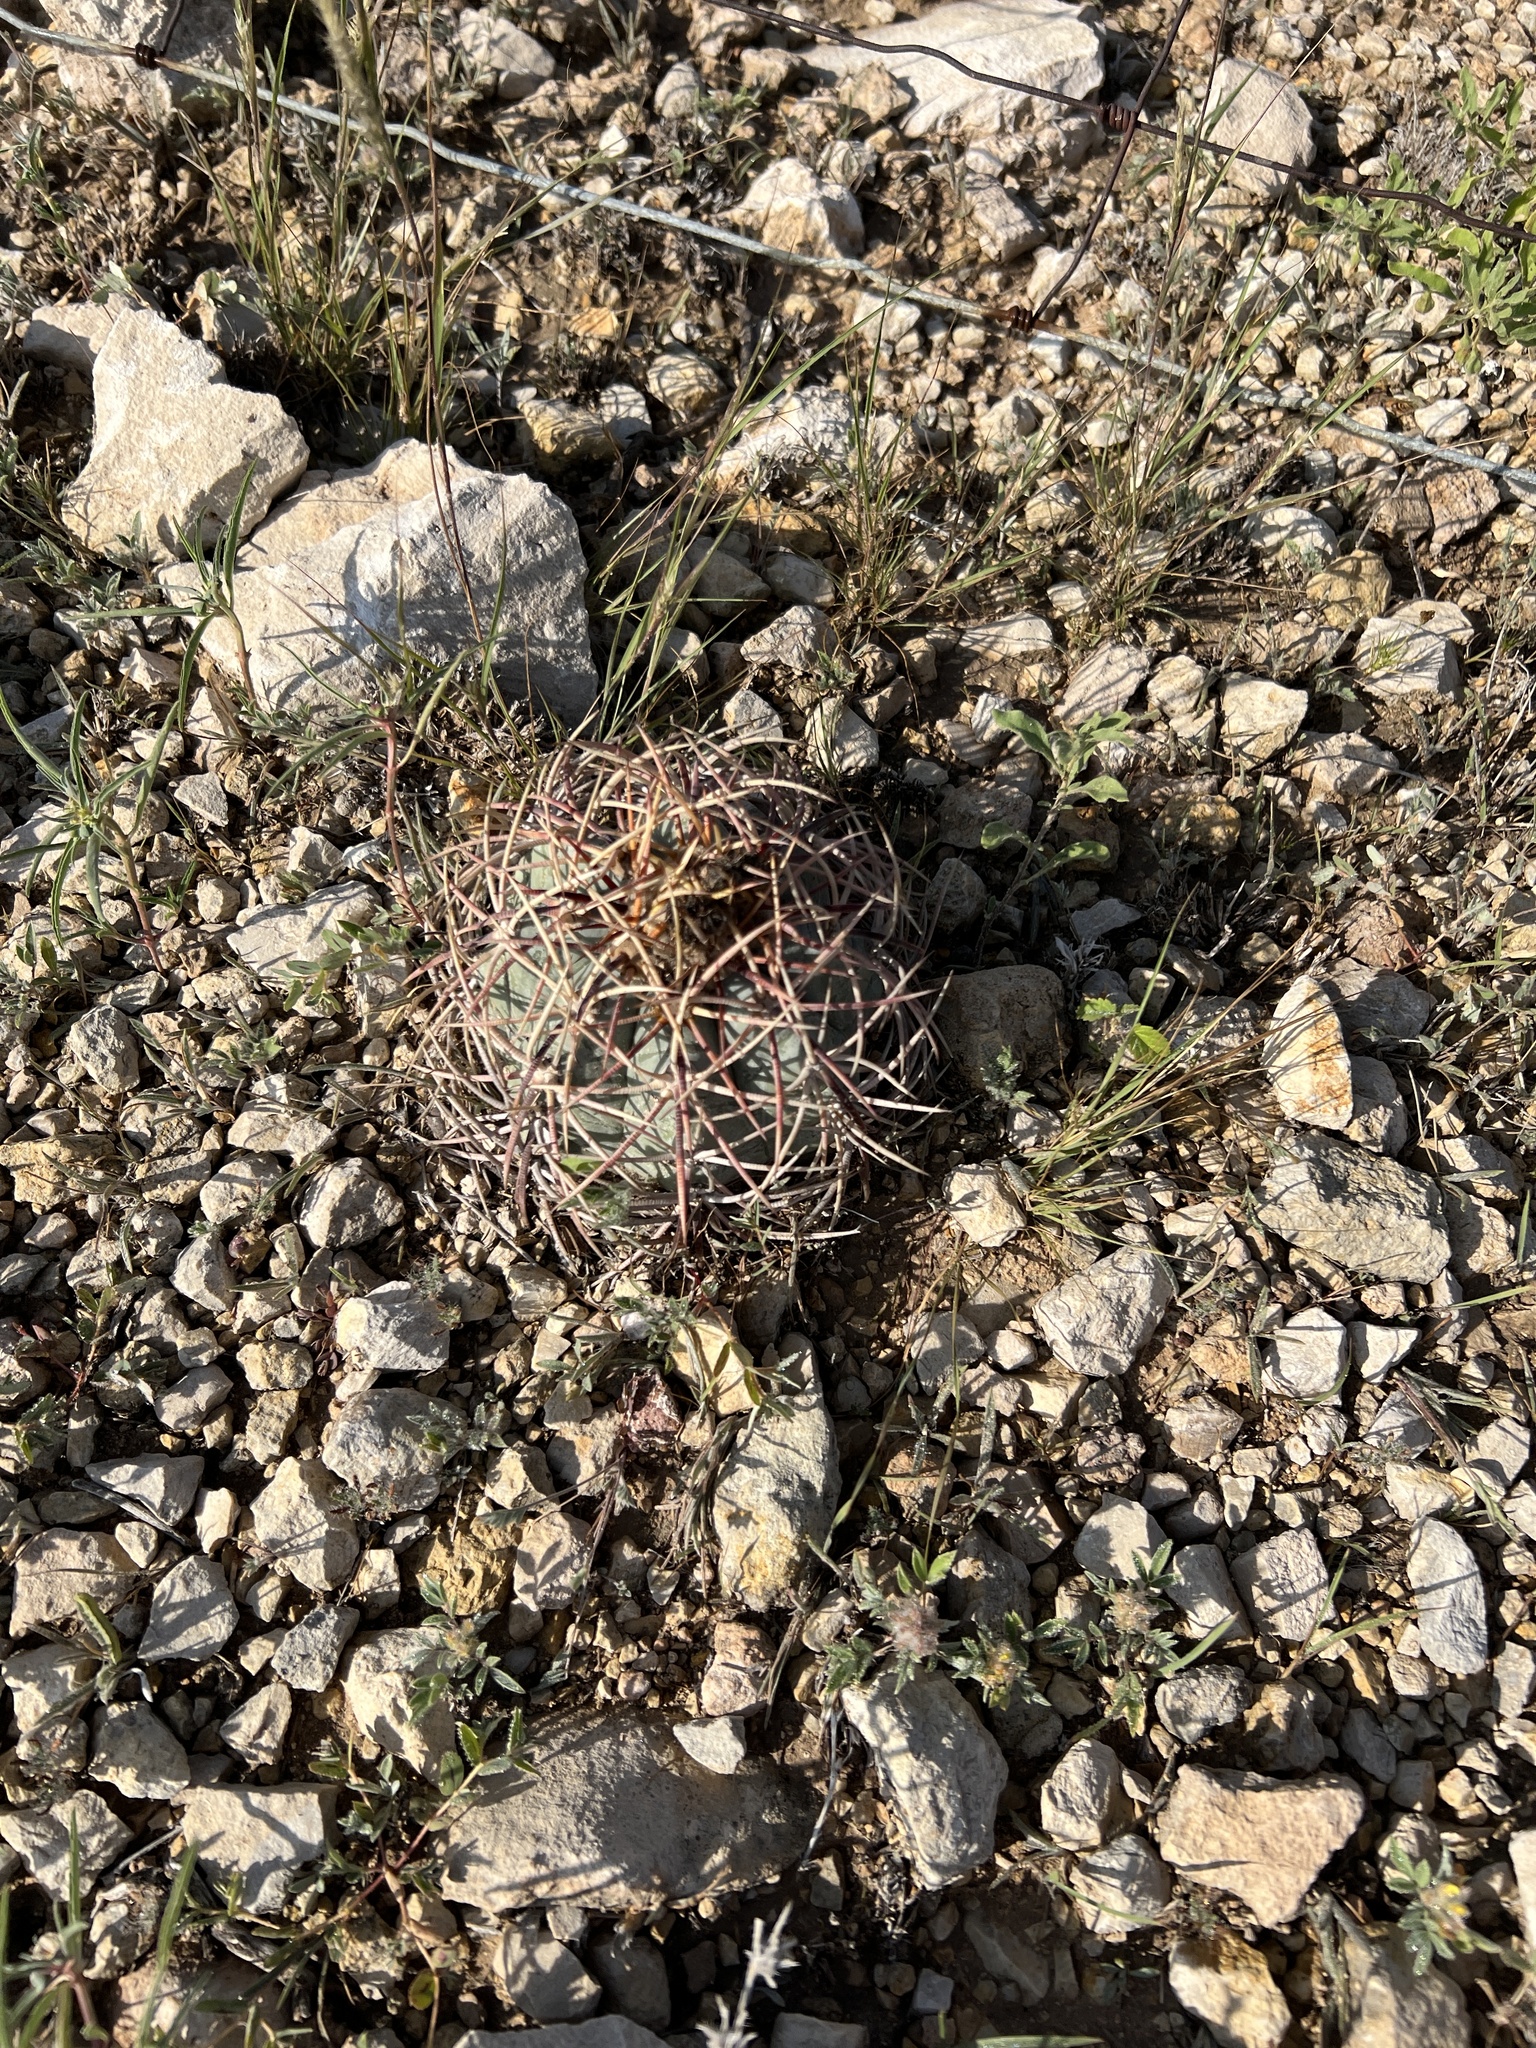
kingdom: Plantae
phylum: Tracheophyta
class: Magnoliopsida
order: Caryophyllales
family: Cactaceae
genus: Echinocactus
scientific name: Echinocactus horizonthalonius
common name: Devilshead
